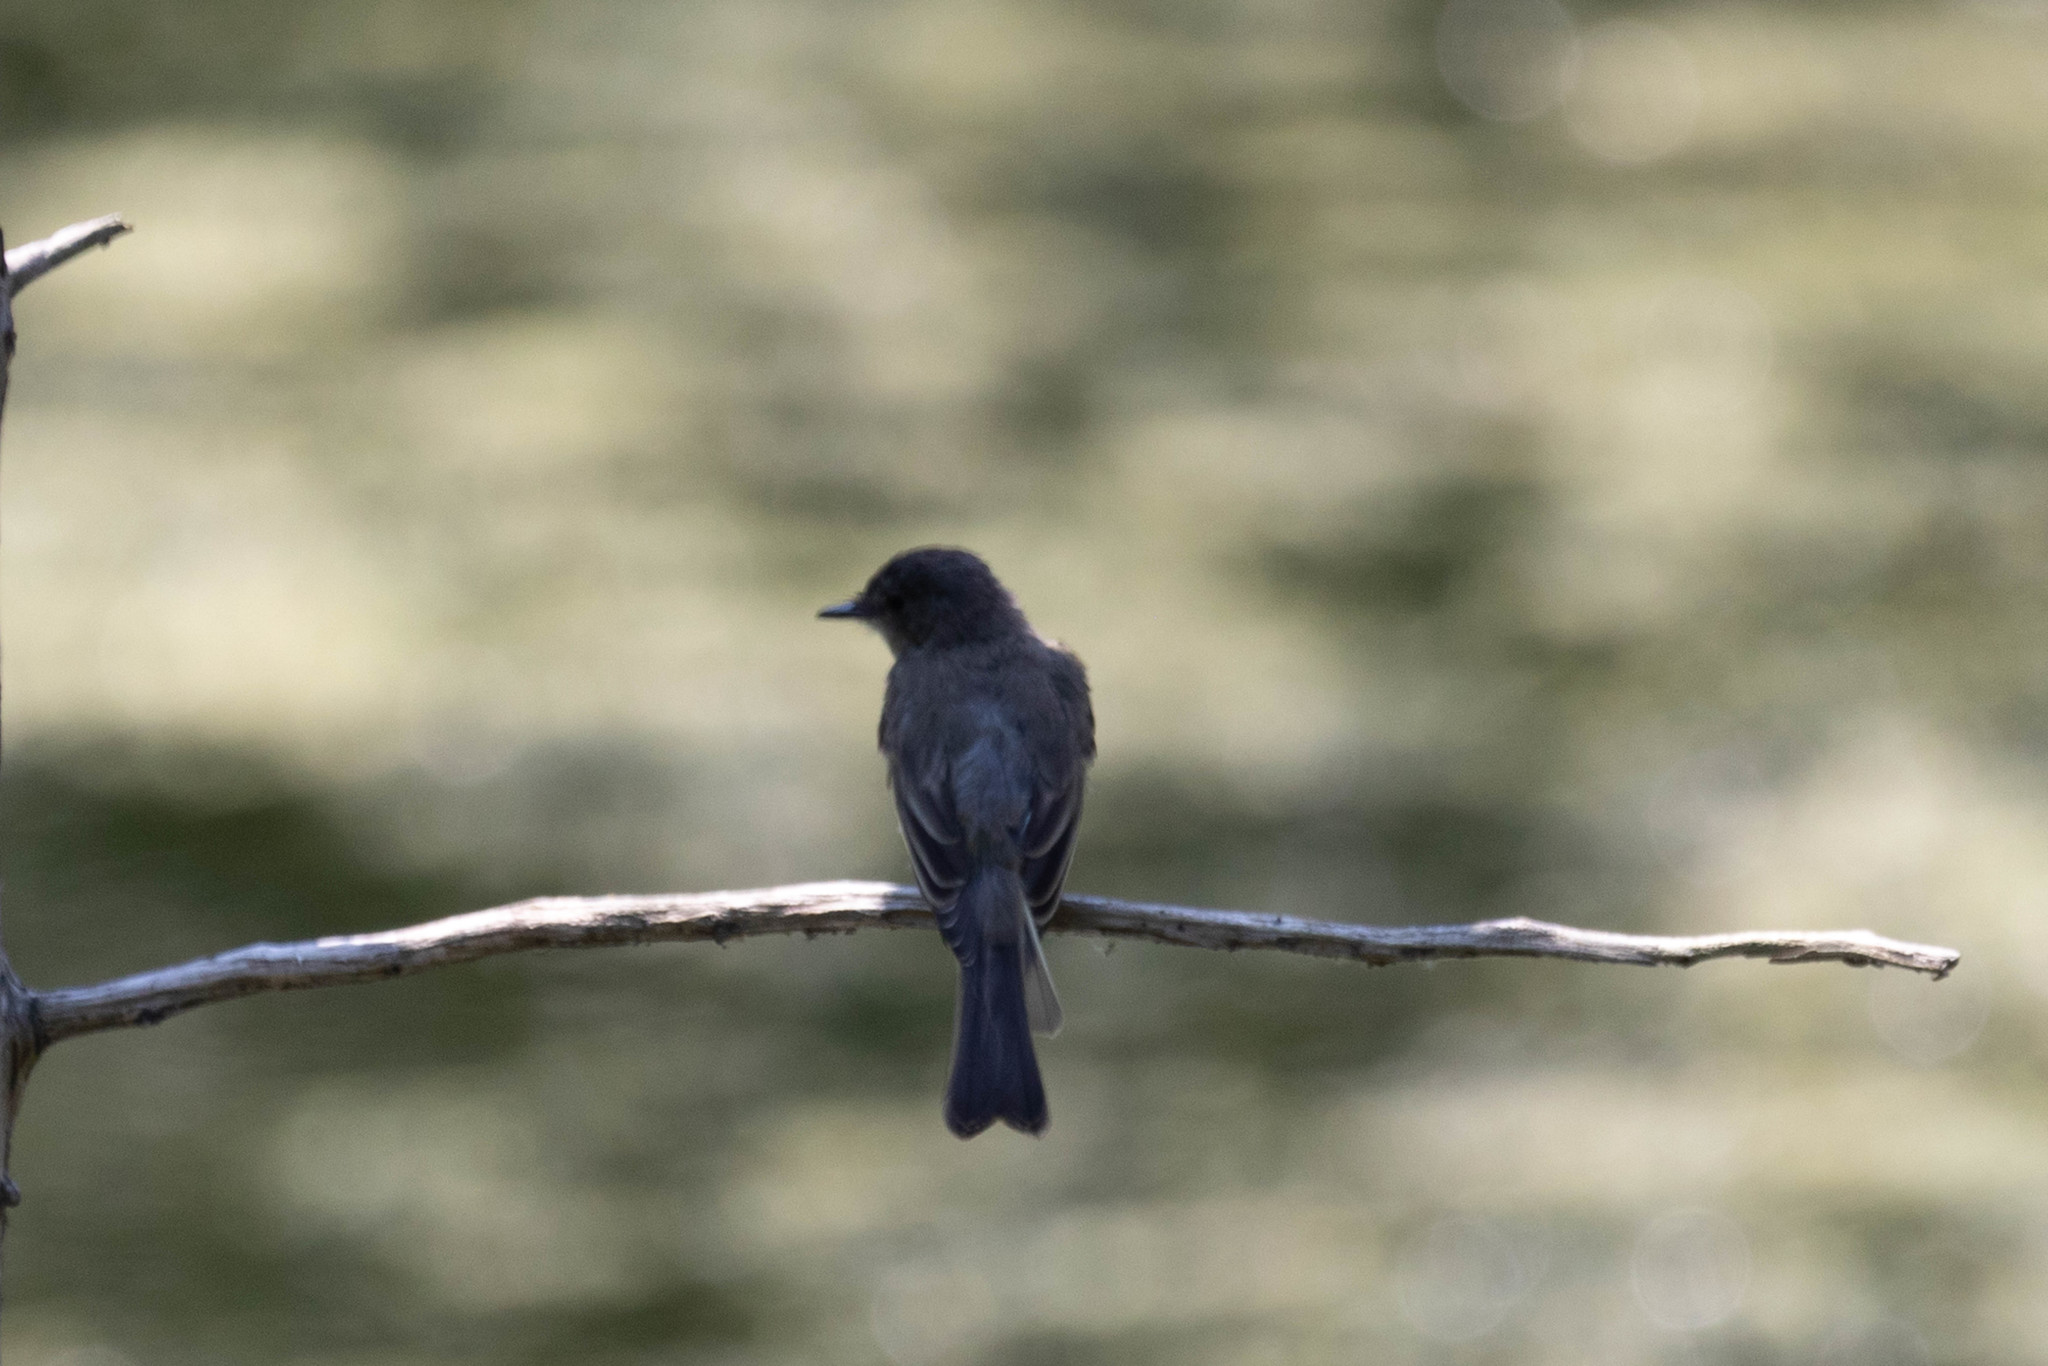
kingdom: Animalia
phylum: Chordata
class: Aves
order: Passeriformes
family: Tyrannidae
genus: Sayornis
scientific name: Sayornis phoebe
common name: Eastern phoebe
